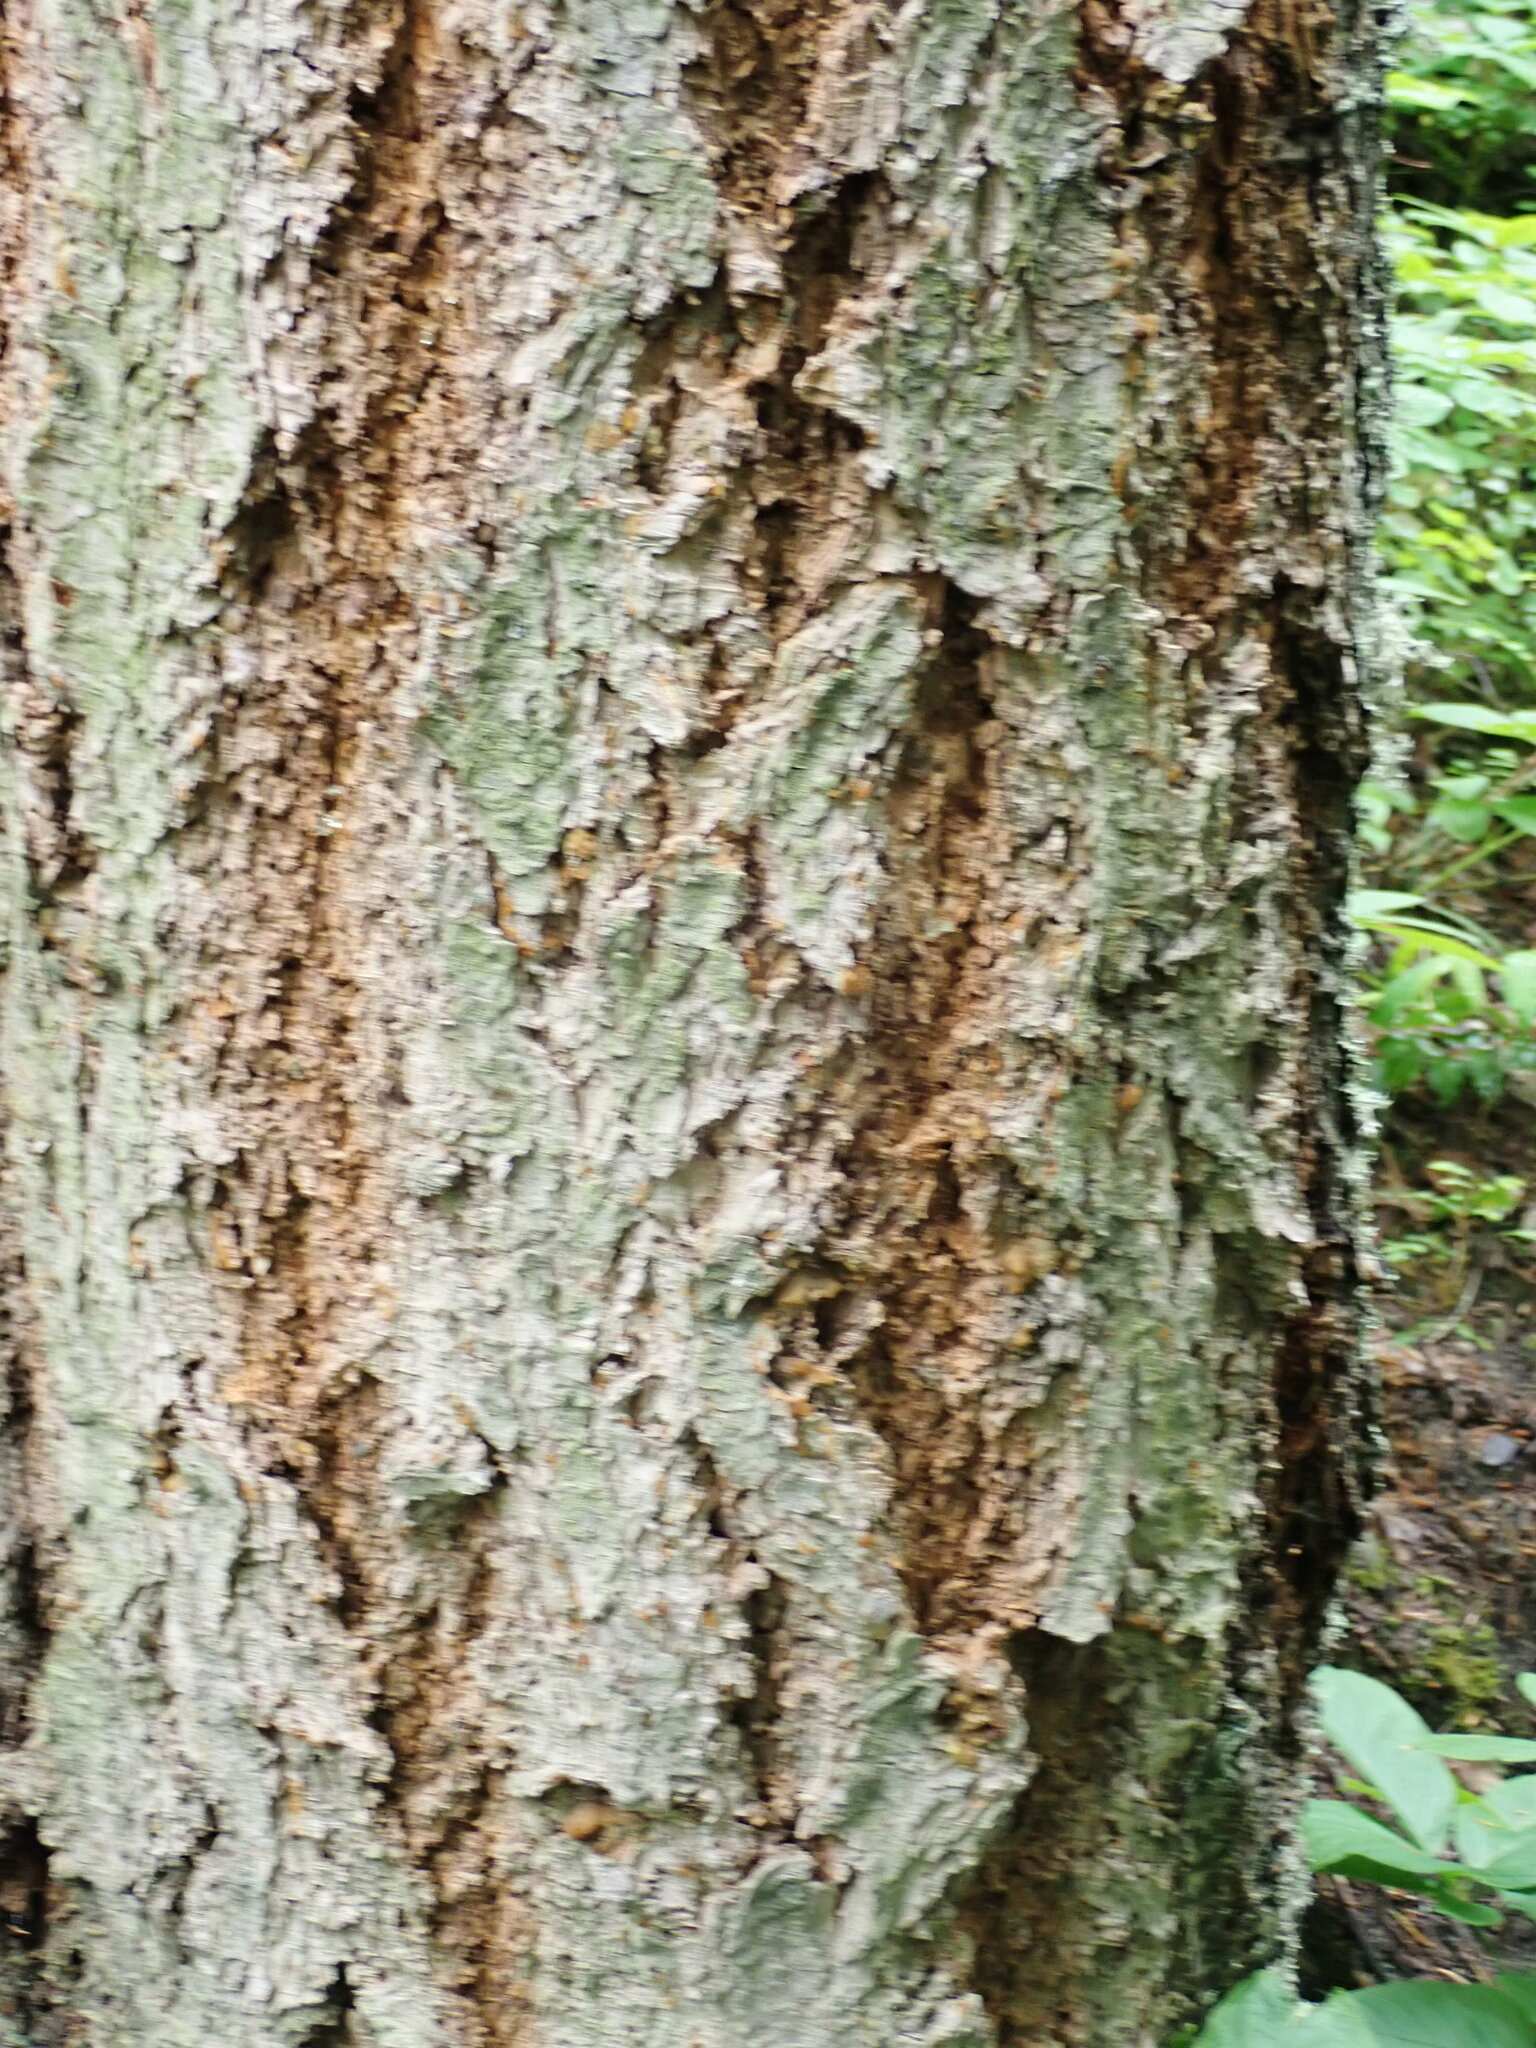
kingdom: Plantae
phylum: Tracheophyta
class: Pinopsida
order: Pinales
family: Pinaceae
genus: Pseudotsuga
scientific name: Pseudotsuga menziesii
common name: Douglas fir
